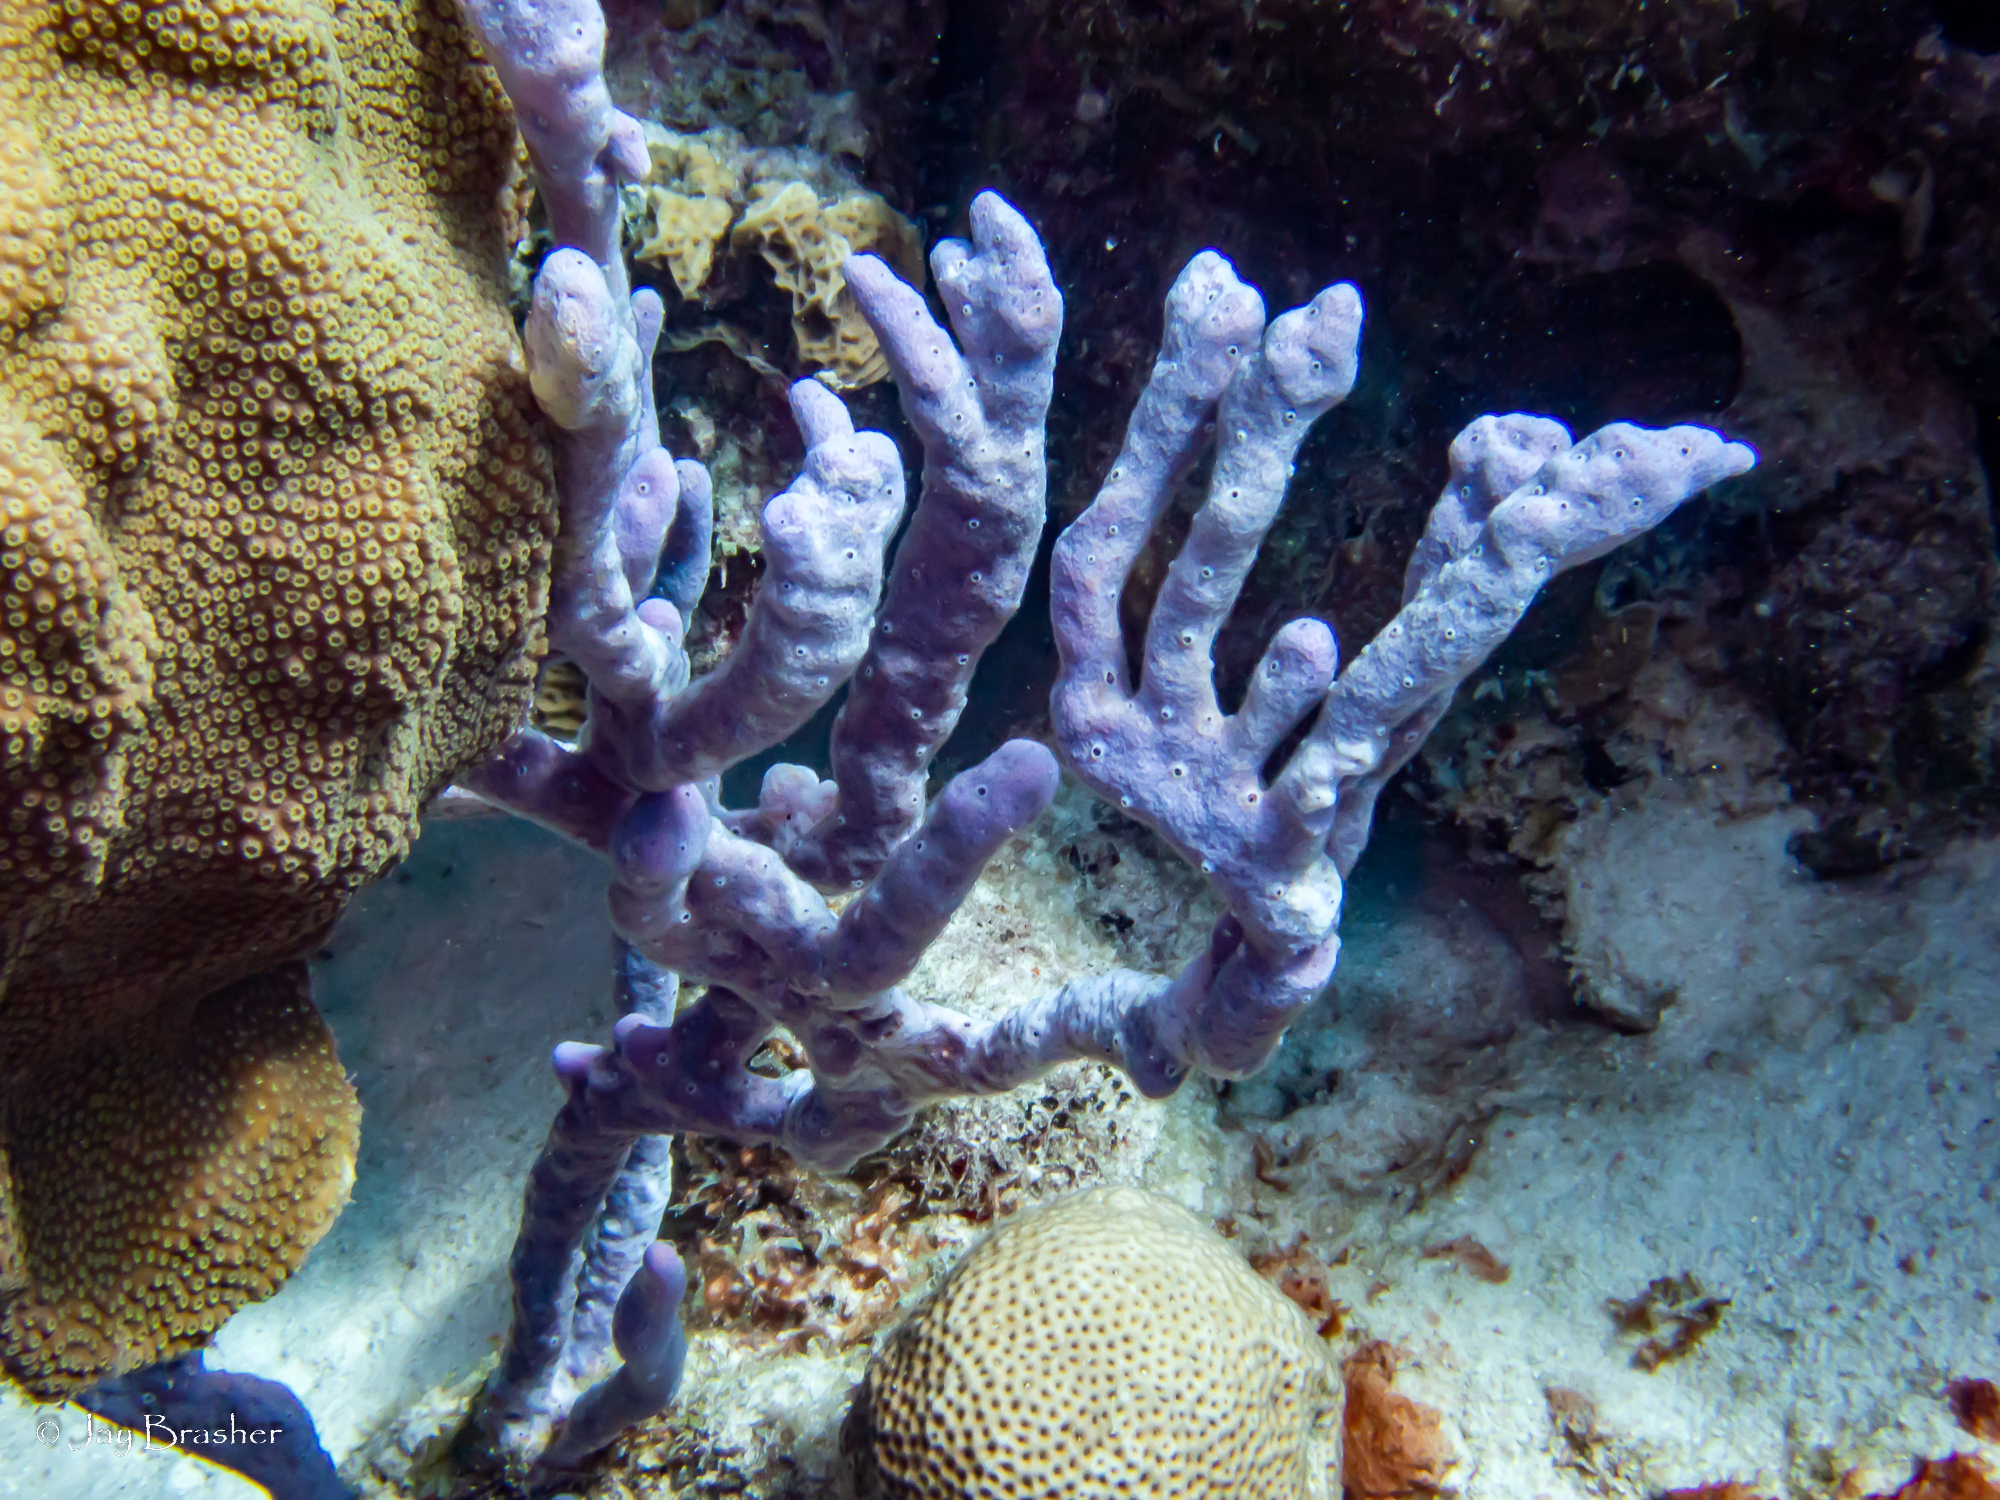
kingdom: Animalia
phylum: Porifera
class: Demospongiae
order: Verongiida
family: Aplysinidae
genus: Aplysina
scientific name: Aplysina cauliformis
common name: Branching candle sponge
